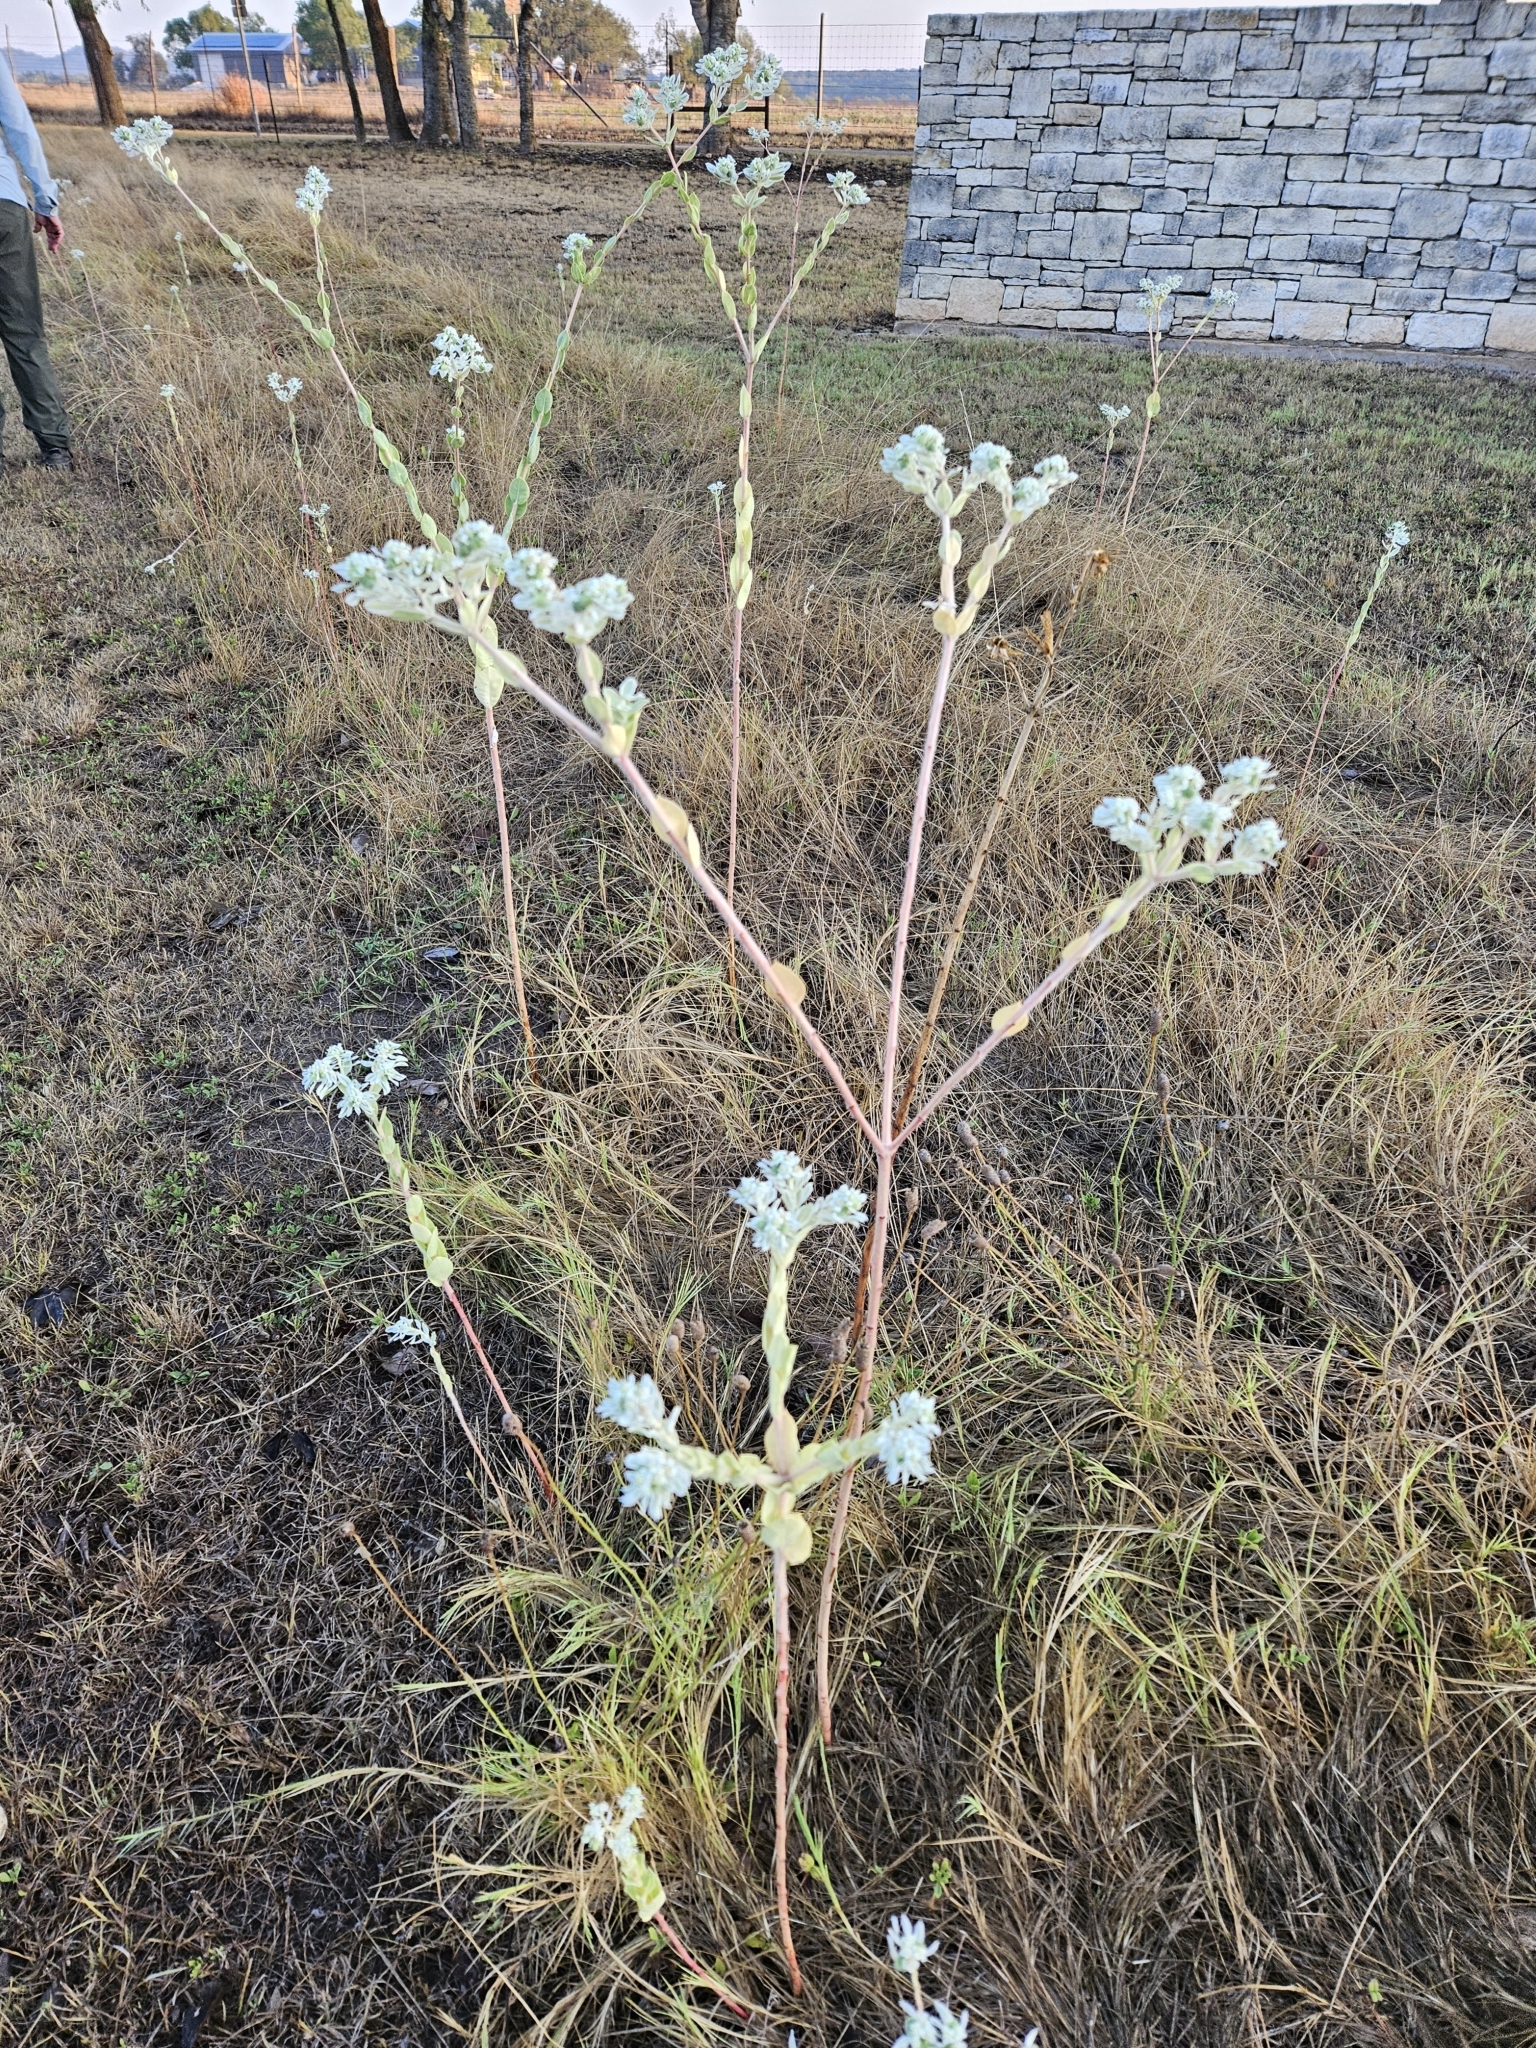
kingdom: Plantae
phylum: Tracheophyta
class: Magnoliopsida
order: Malpighiales
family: Euphorbiaceae
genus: Euphorbia
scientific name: Euphorbia marginata
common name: Ghostweed
